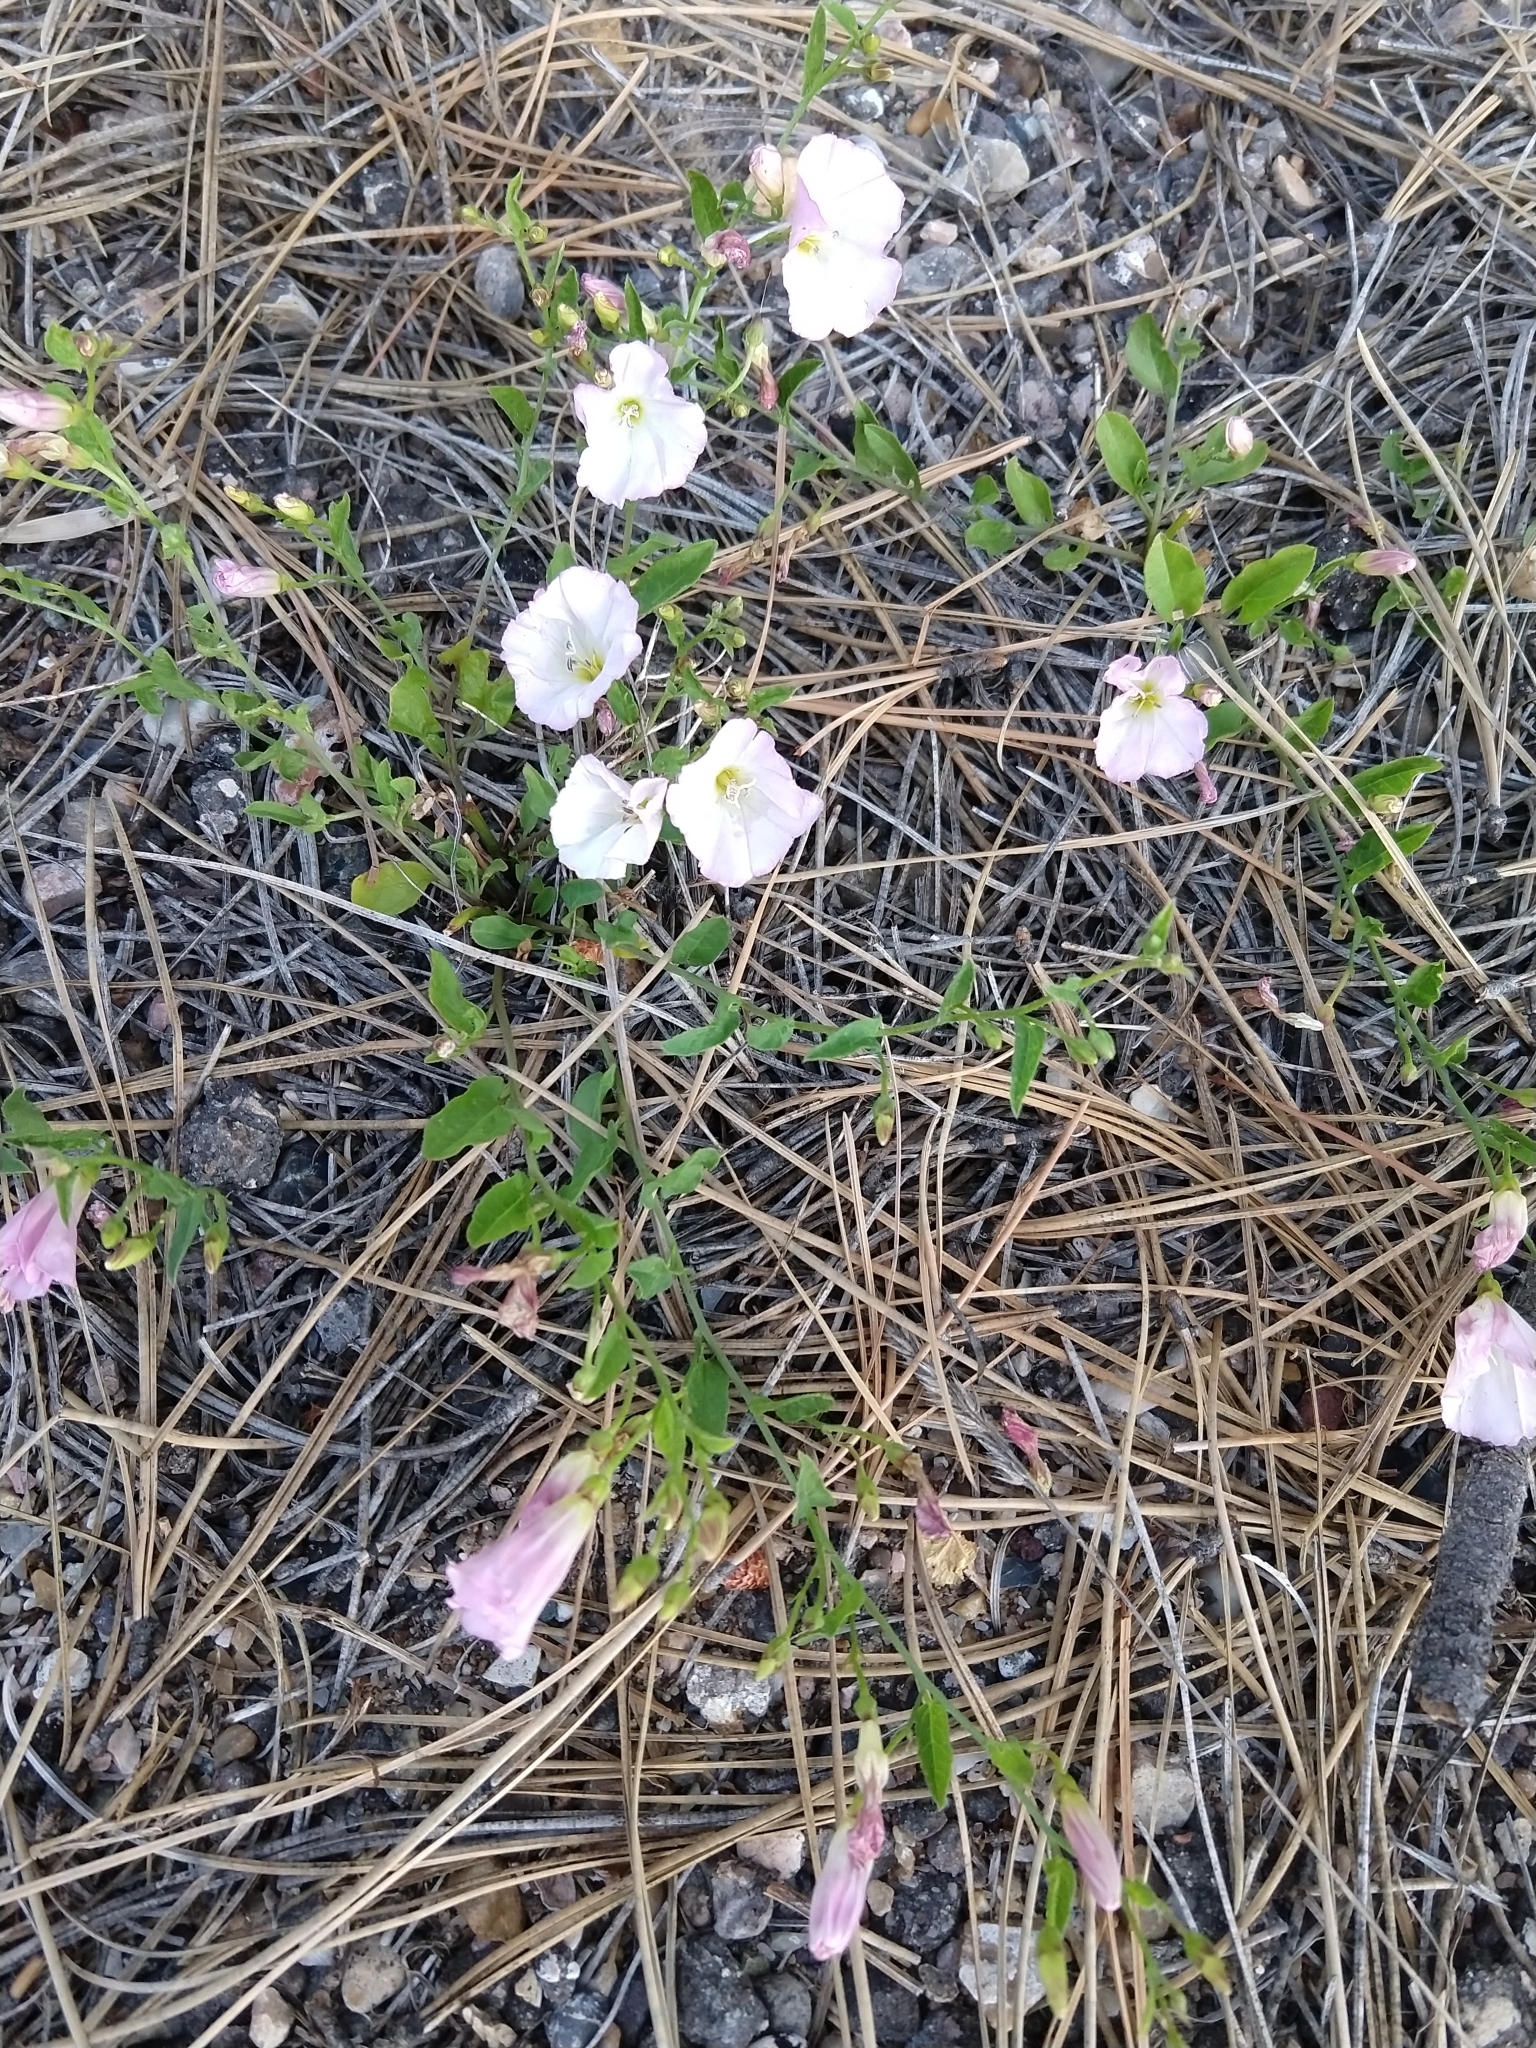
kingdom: Plantae
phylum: Tracheophyta
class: Magnoliopsida
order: Solanales
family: Convolvulaceae
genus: Convolvulus
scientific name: Convolvulus arvensis
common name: Field bindweed
